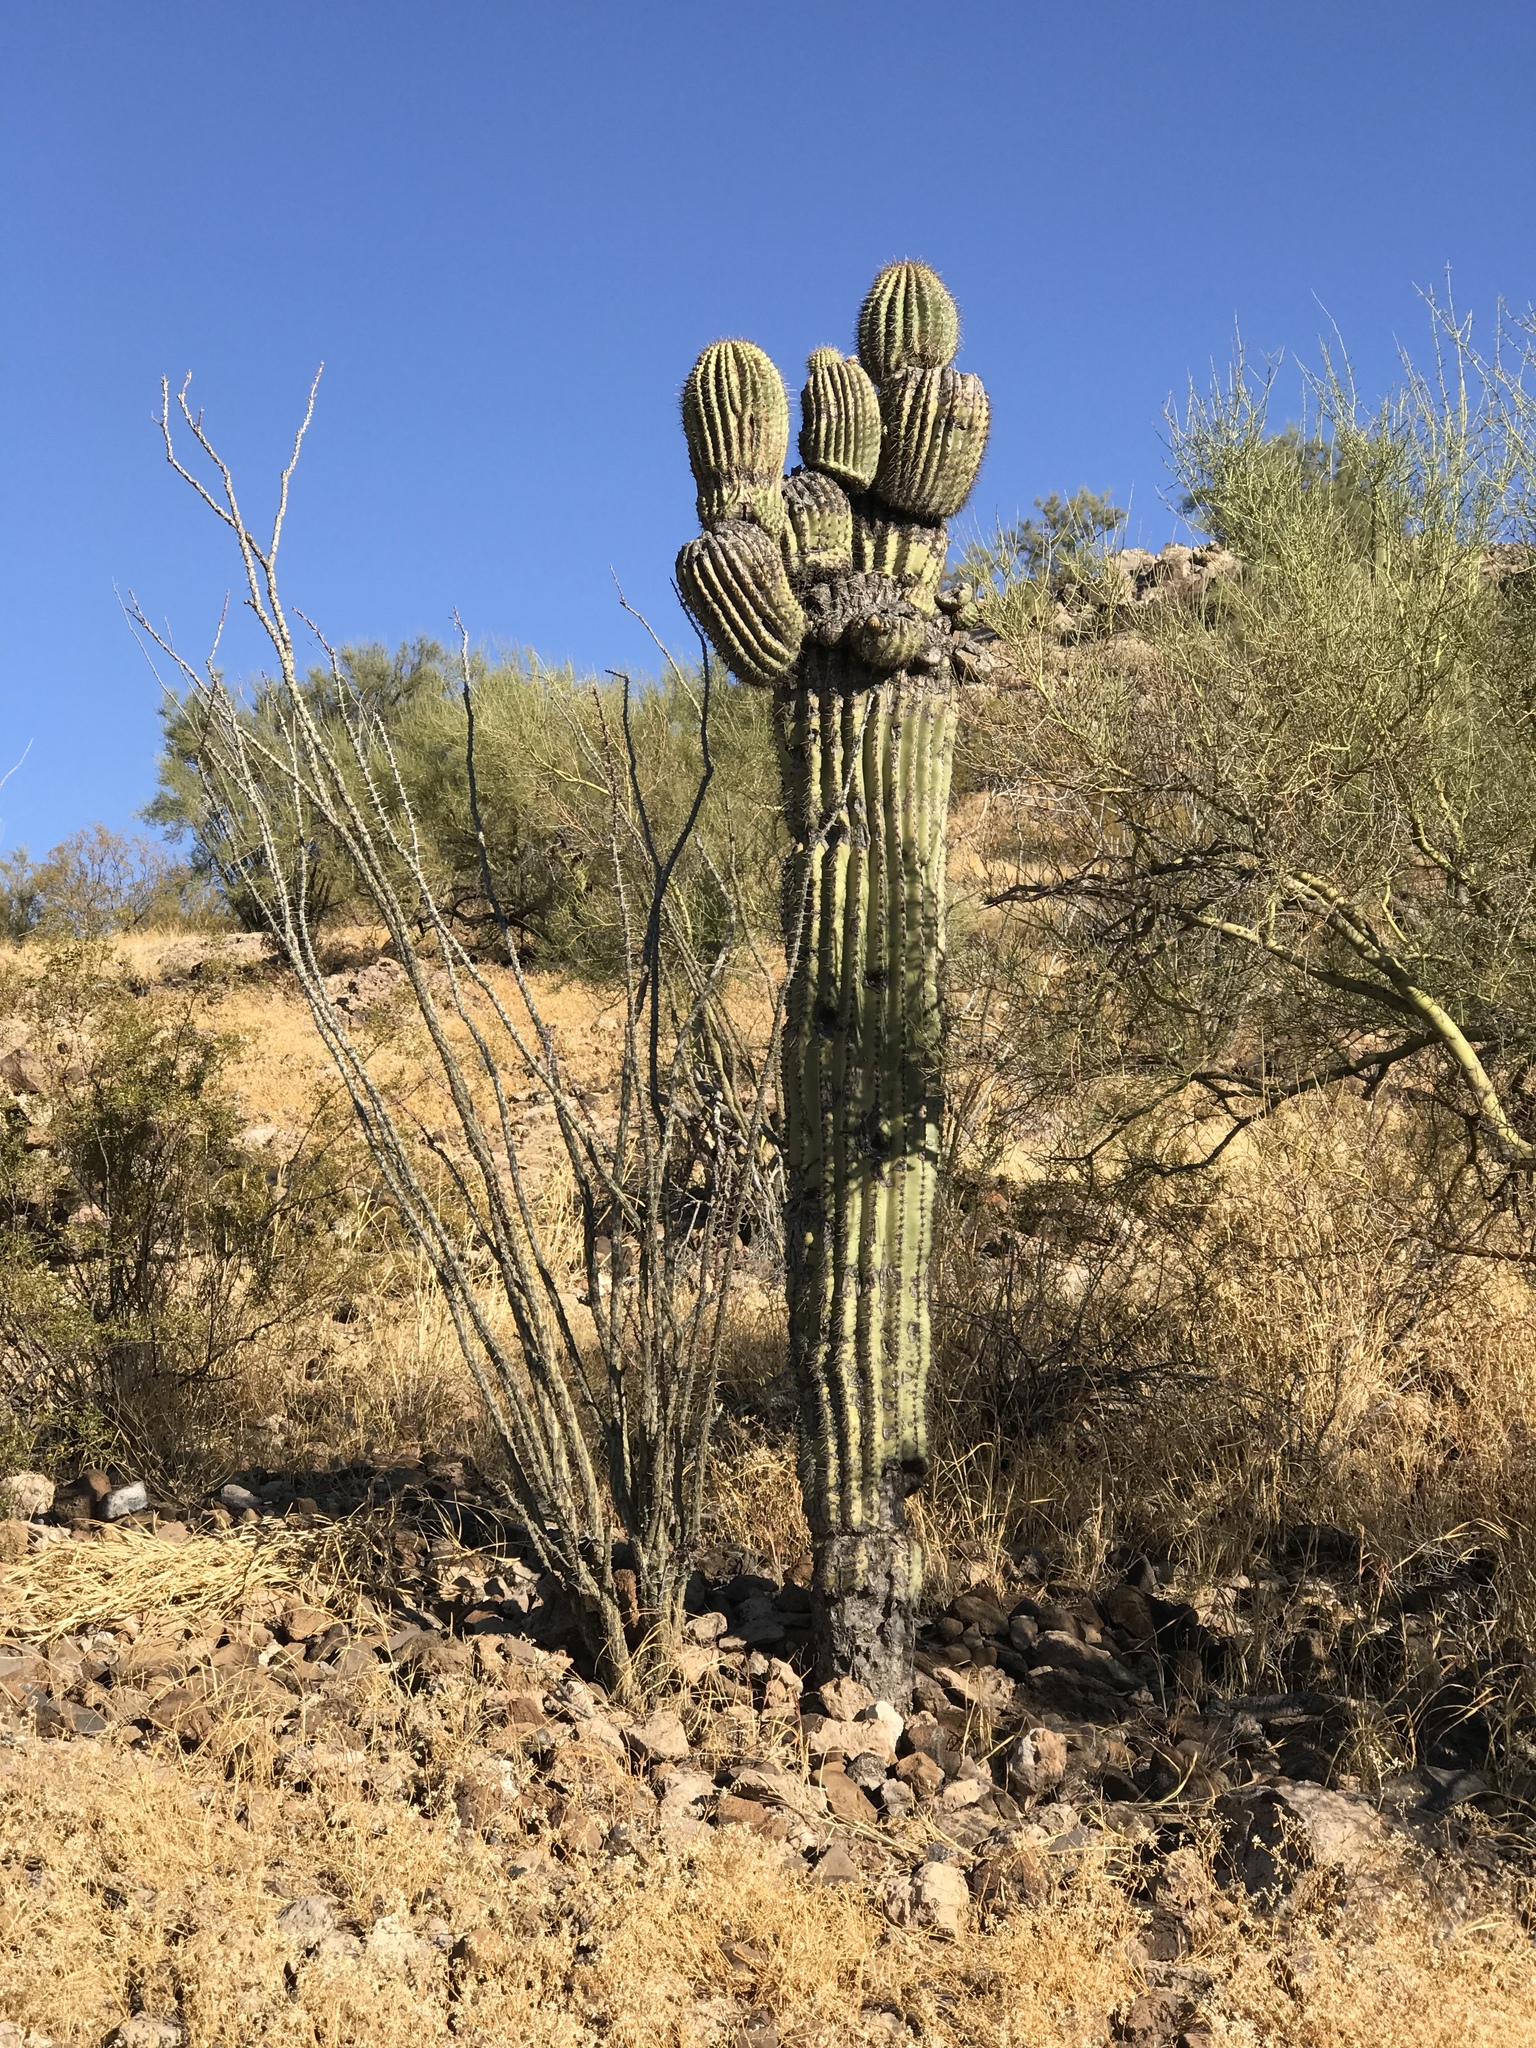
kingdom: Plantae
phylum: Tracheophyta
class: Magnoliopsida
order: Ericales
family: Fouquieriaceae
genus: Fouquieria
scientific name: Fouquieria splendens
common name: Vine-cactus
